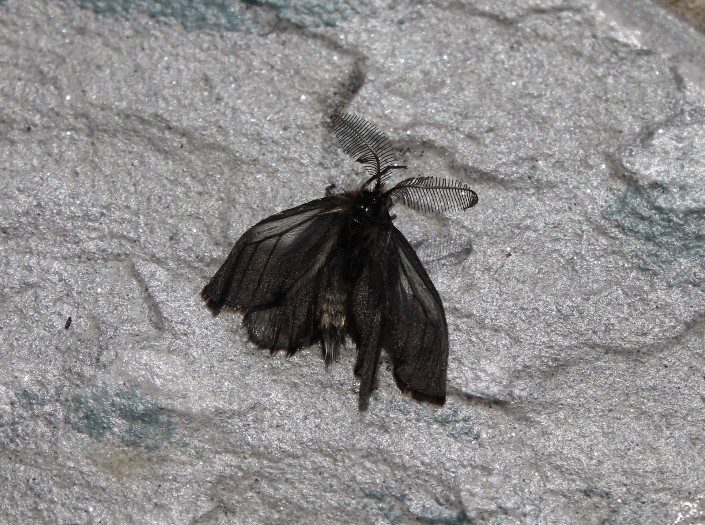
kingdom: Animalia
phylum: Arthropoda
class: Insecta
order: Lepidoptera
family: Erebidae
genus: Penthophera
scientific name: Penthophera morio
